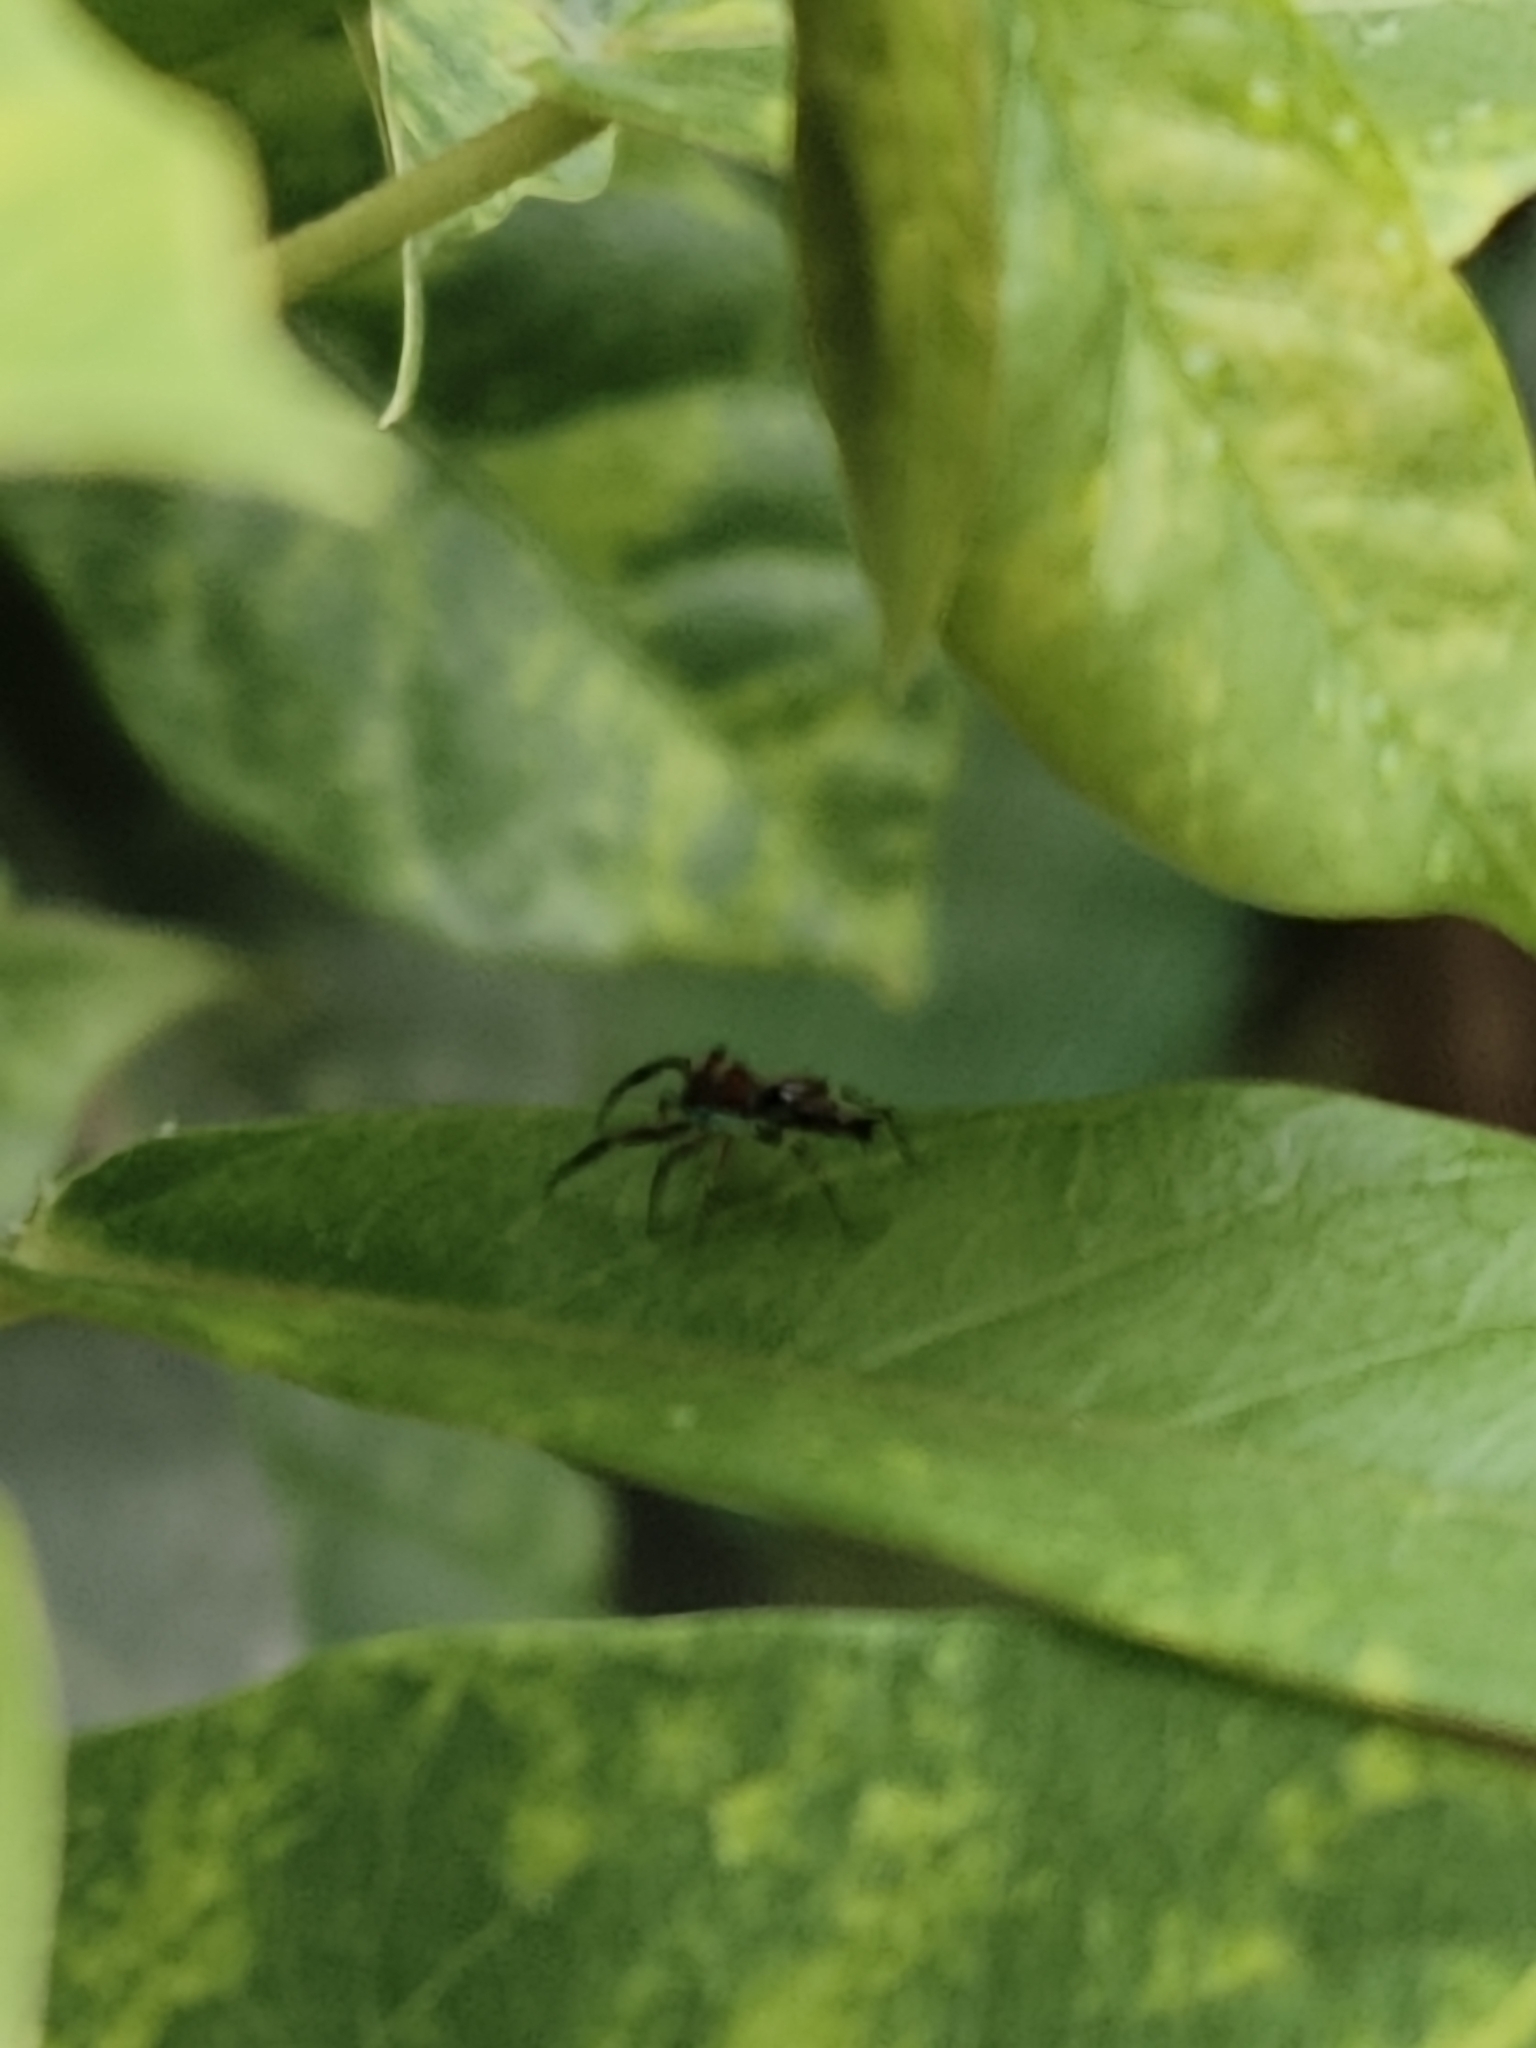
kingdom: Animalia
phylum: Arthropoda
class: Arachnida
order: Araneae
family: Salticidae
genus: Chrysilla
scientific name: Chrysilla volupe
